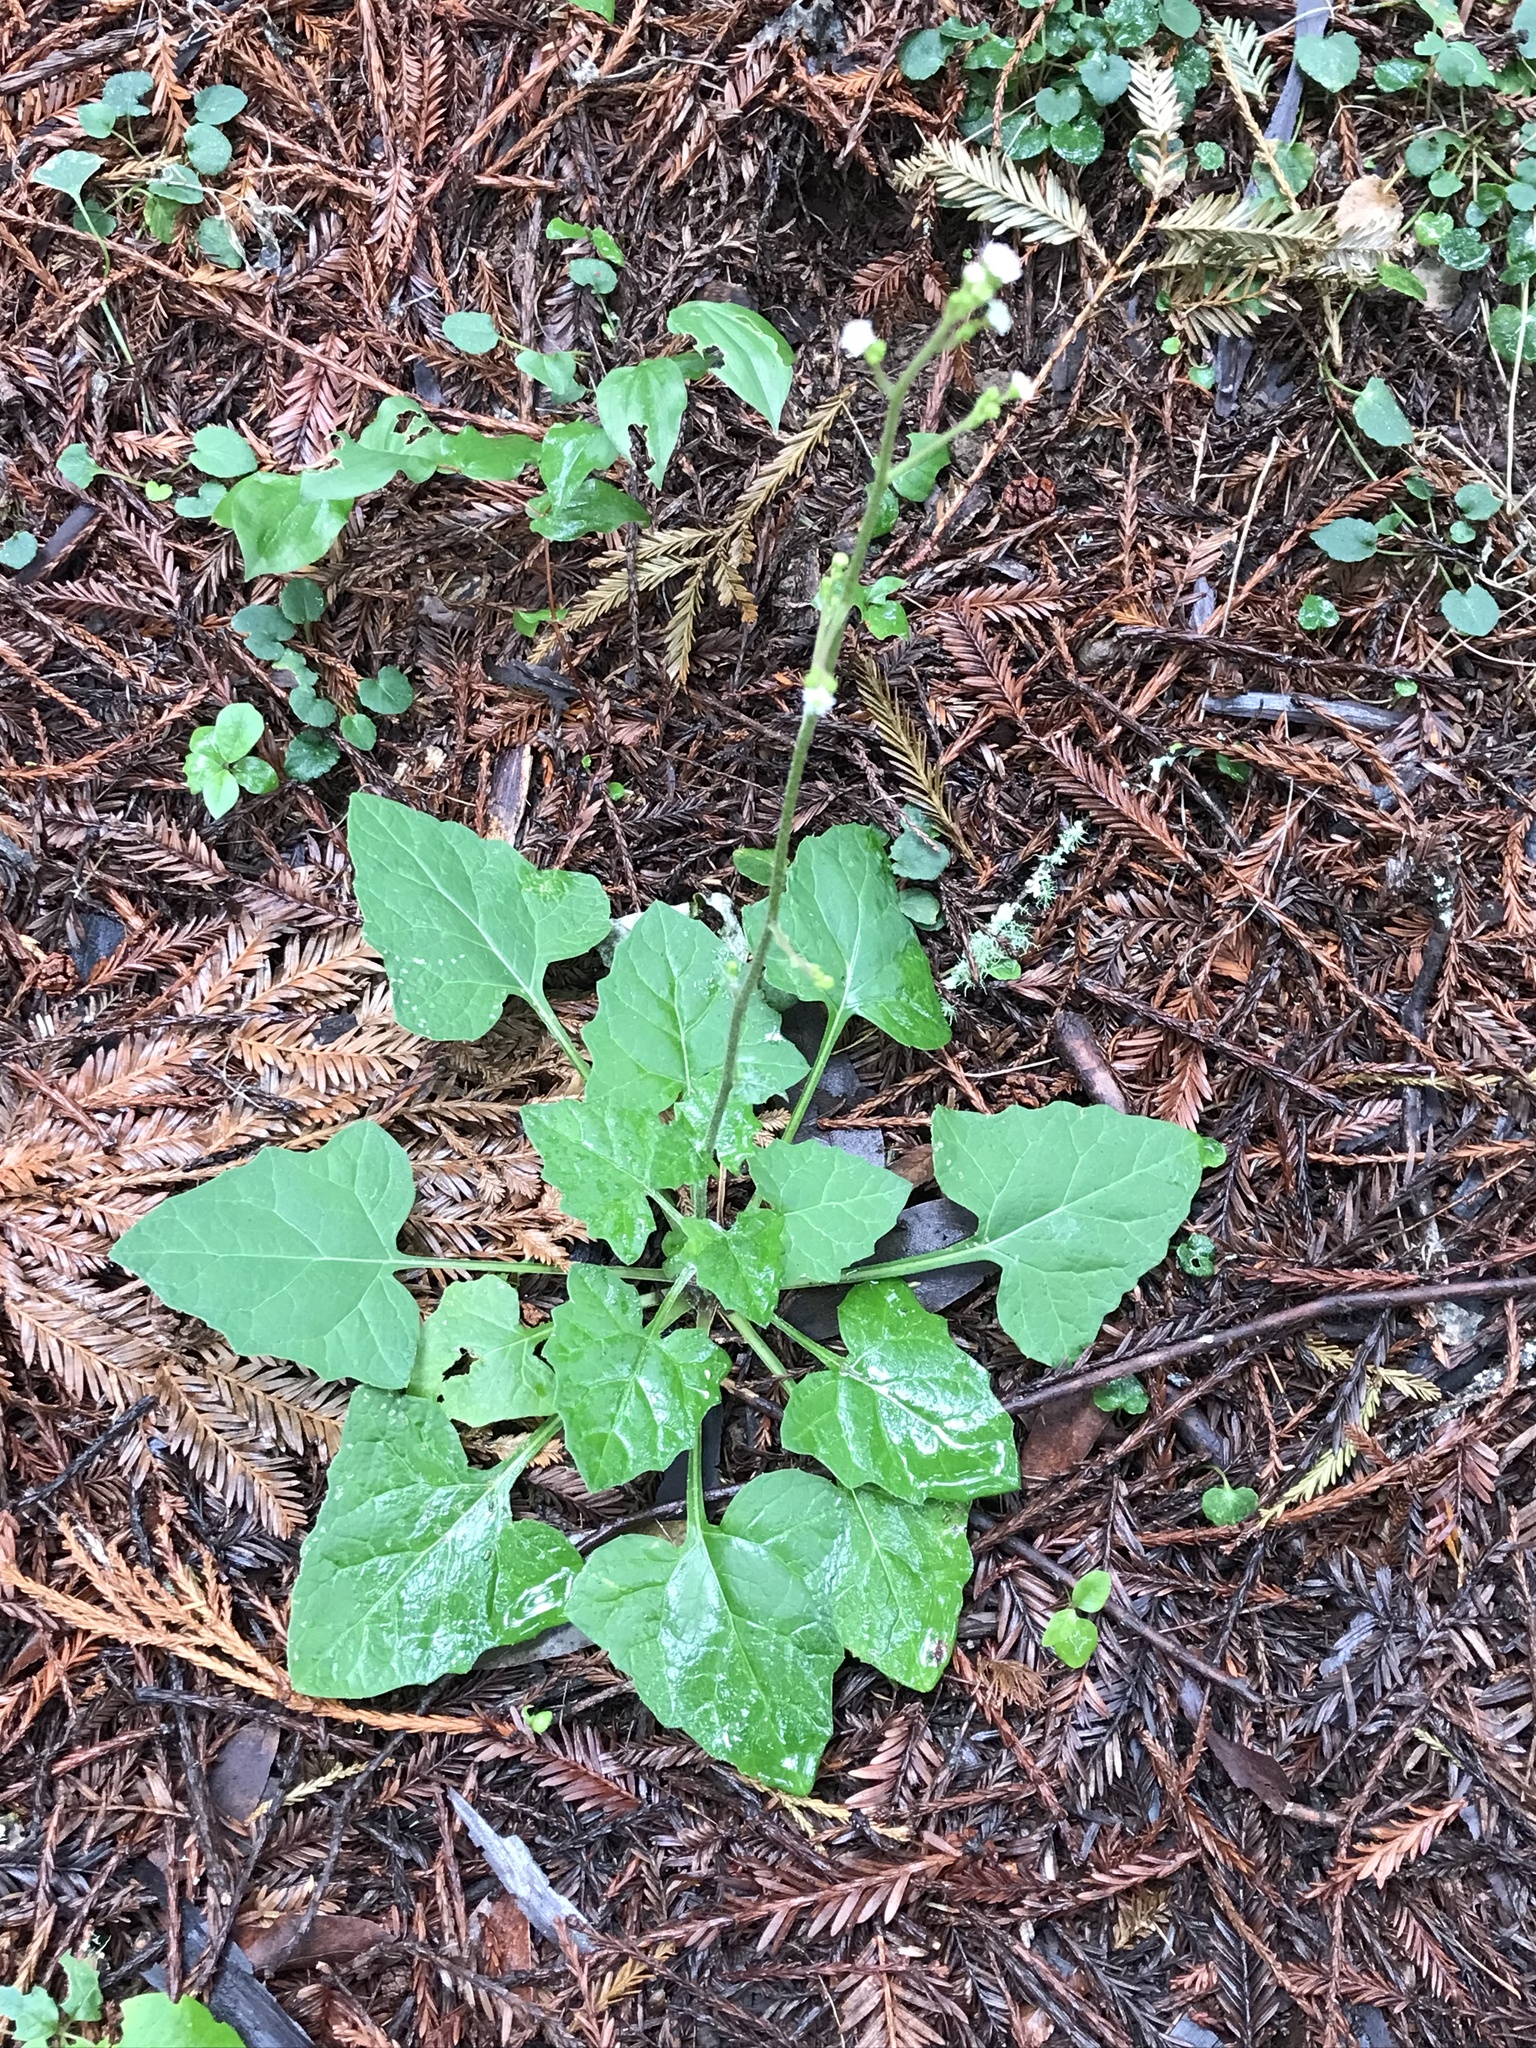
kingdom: Plantae
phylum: Tracheophyta
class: Magnoliopsida
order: Asterales
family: Asteraceae
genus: Adenocaulon
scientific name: Adenocaulon bicolor
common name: Trailplant
